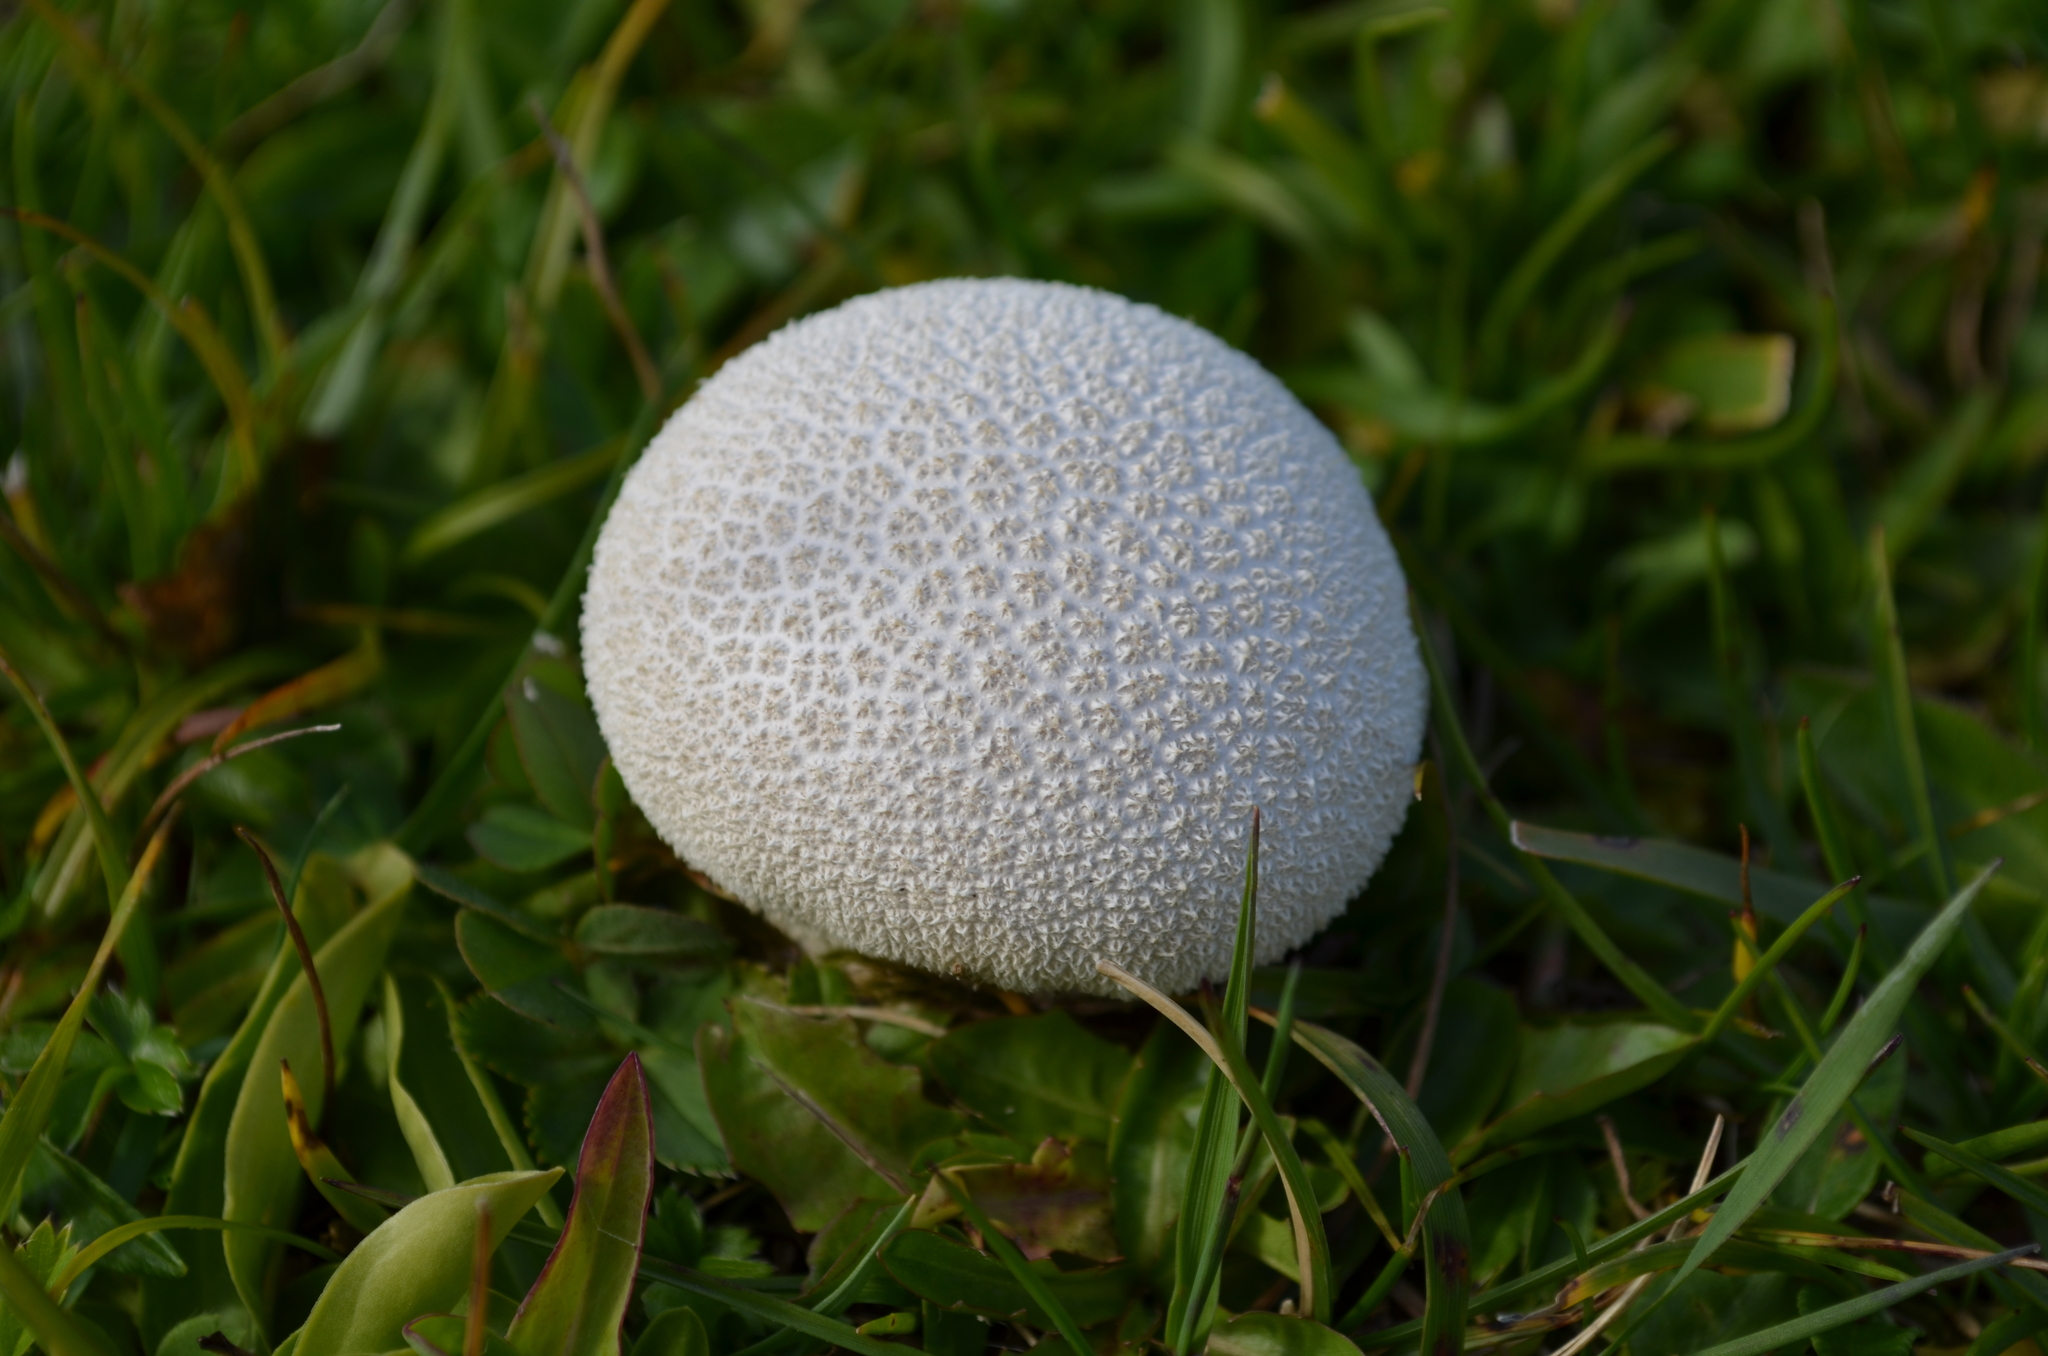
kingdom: Fungi
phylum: Basidiomycota
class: Agaricomycetes
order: Agaricales
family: Lycoperdaceae
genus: Lycoperdon
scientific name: Lycoperdon pratense
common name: Meadow puffball
